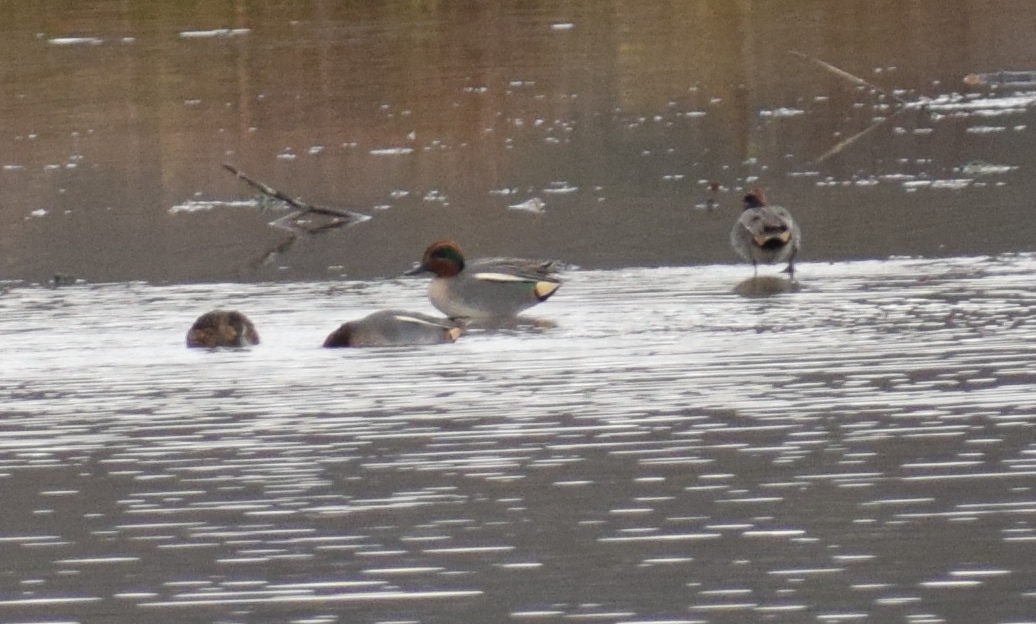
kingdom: Animalia
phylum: Chordata
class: Aves
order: Anseriformes
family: Anatidae
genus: Anas
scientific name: Anas crecca
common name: Eurasian teal
